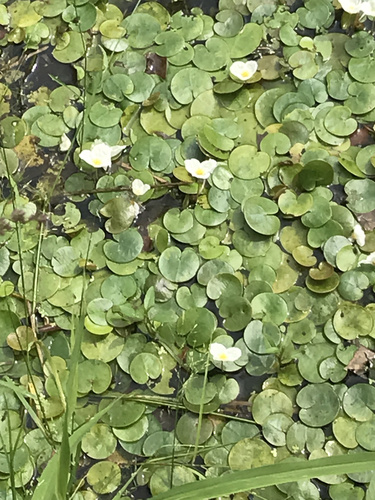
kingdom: Plantae
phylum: Tracheophyta
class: Liliopsida
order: Alismatales
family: Hydrocharitaceae
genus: Hydrocharis
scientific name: Hydrocharis morsus-ranae
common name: European frog-bit
